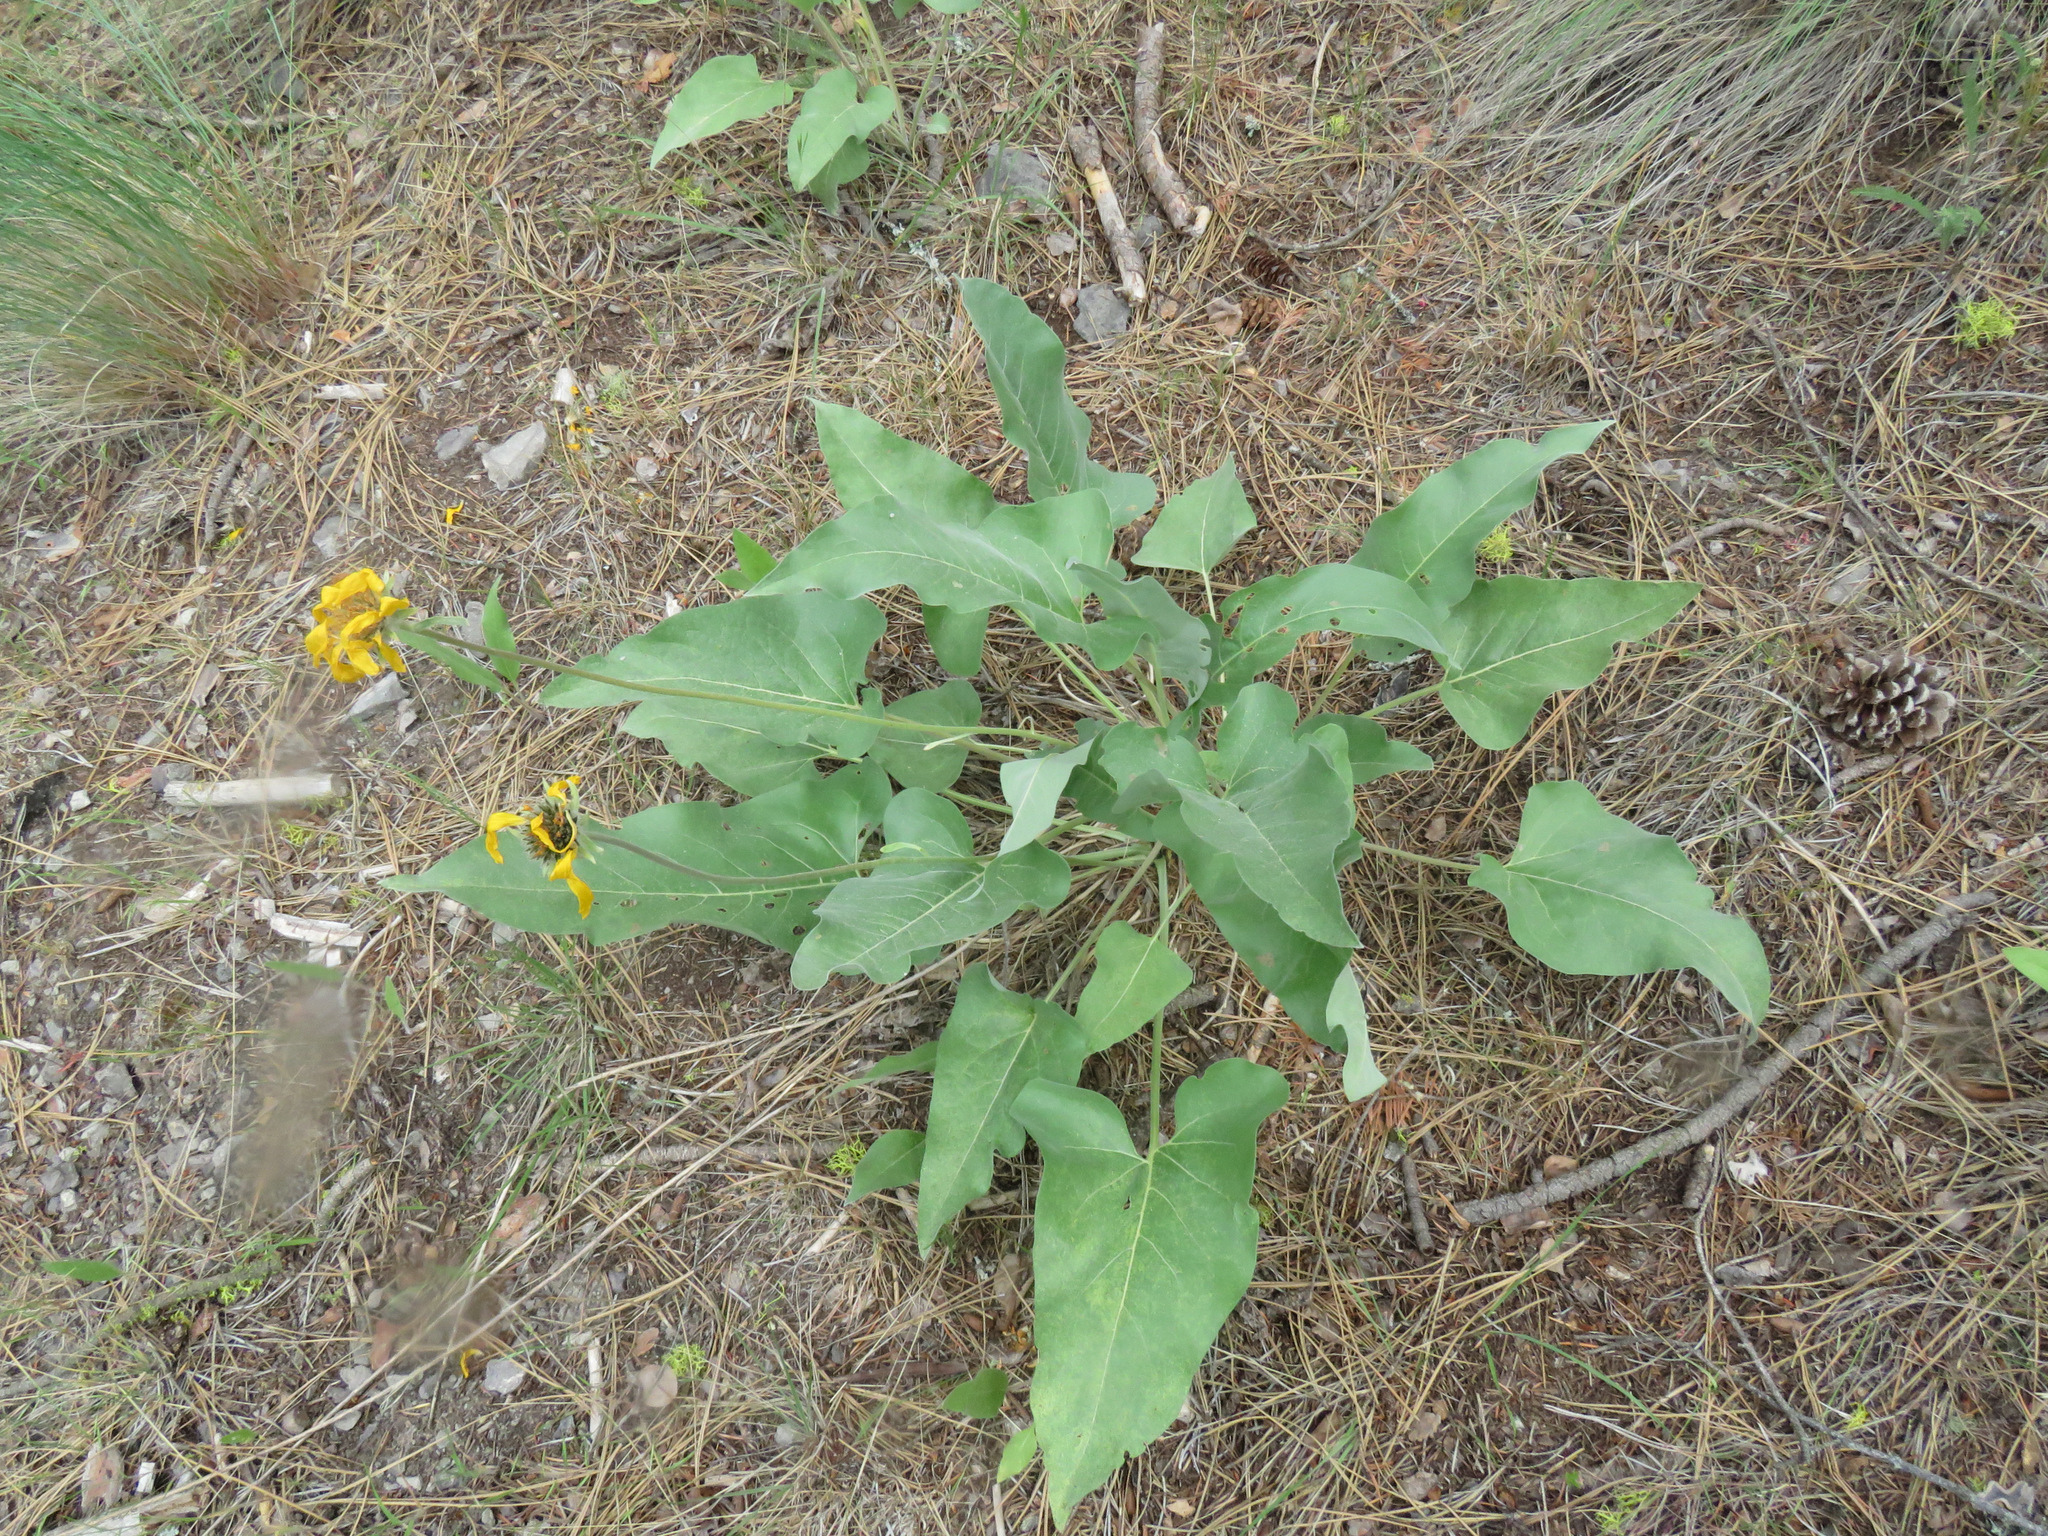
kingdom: Plantae
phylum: Tracheophyta
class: Magnoliopsida
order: Asterales
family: Asteraceae
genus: Wyethia
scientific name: Wyethia sagittata
